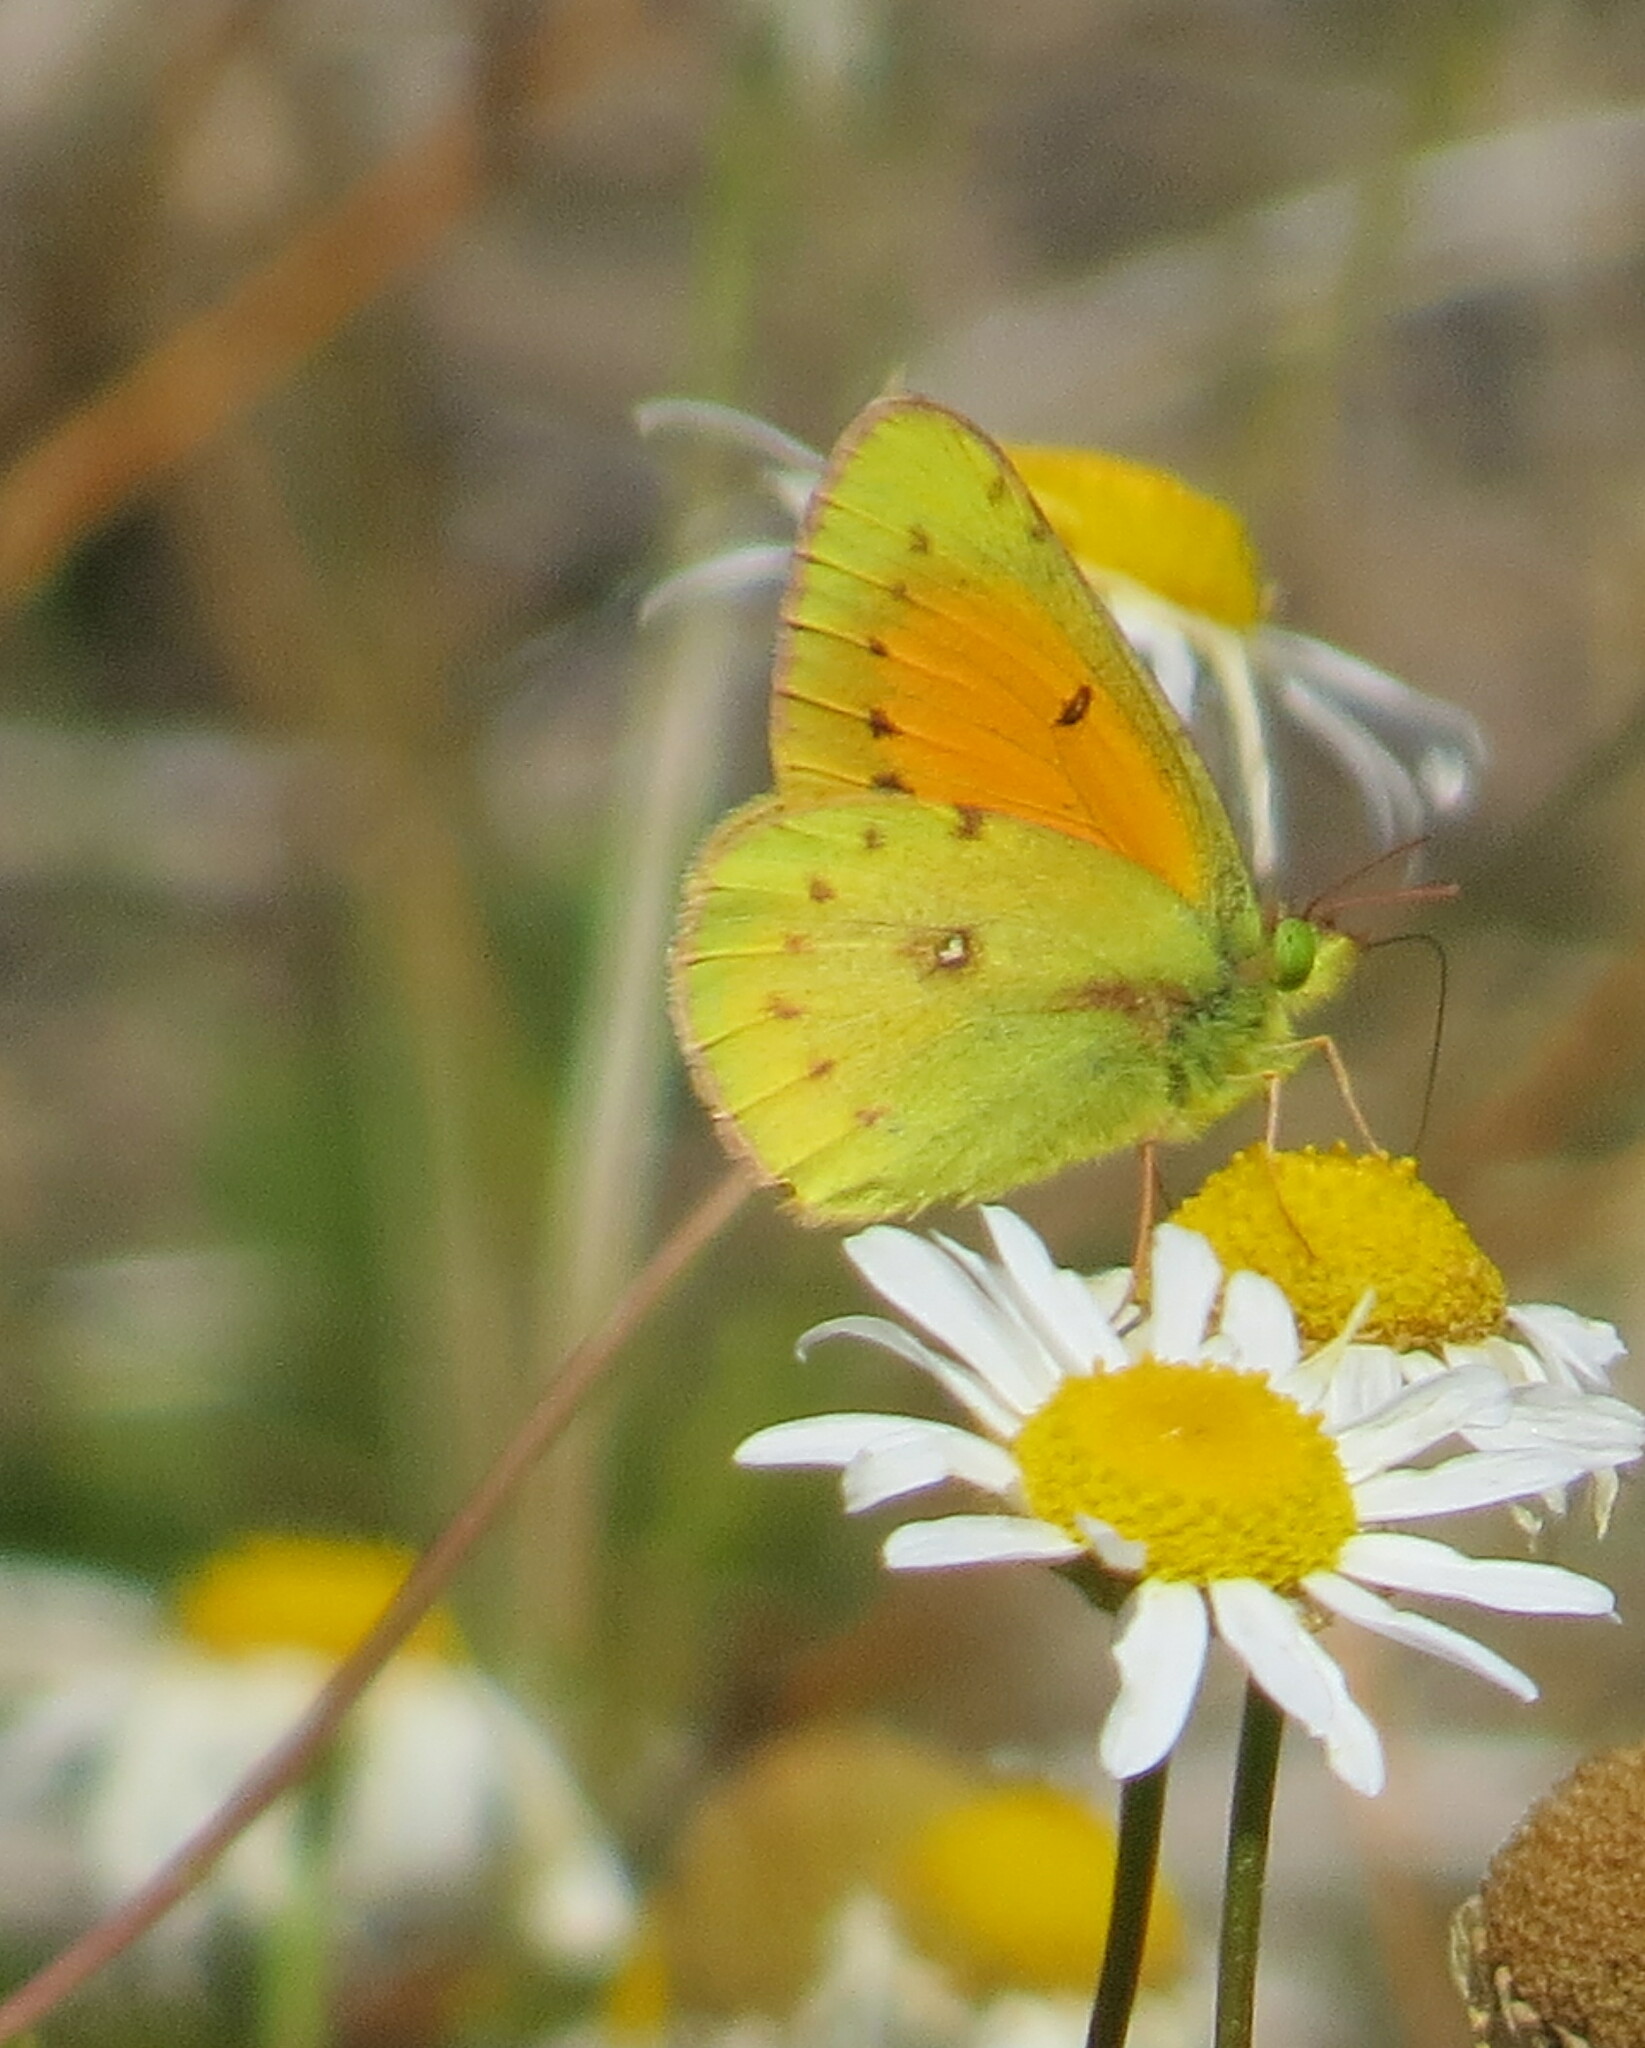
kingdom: Animalia
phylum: Arthropoda
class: Insecta
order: Lepidoptera
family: Pieridae
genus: Colias
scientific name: Colias vauthierii
